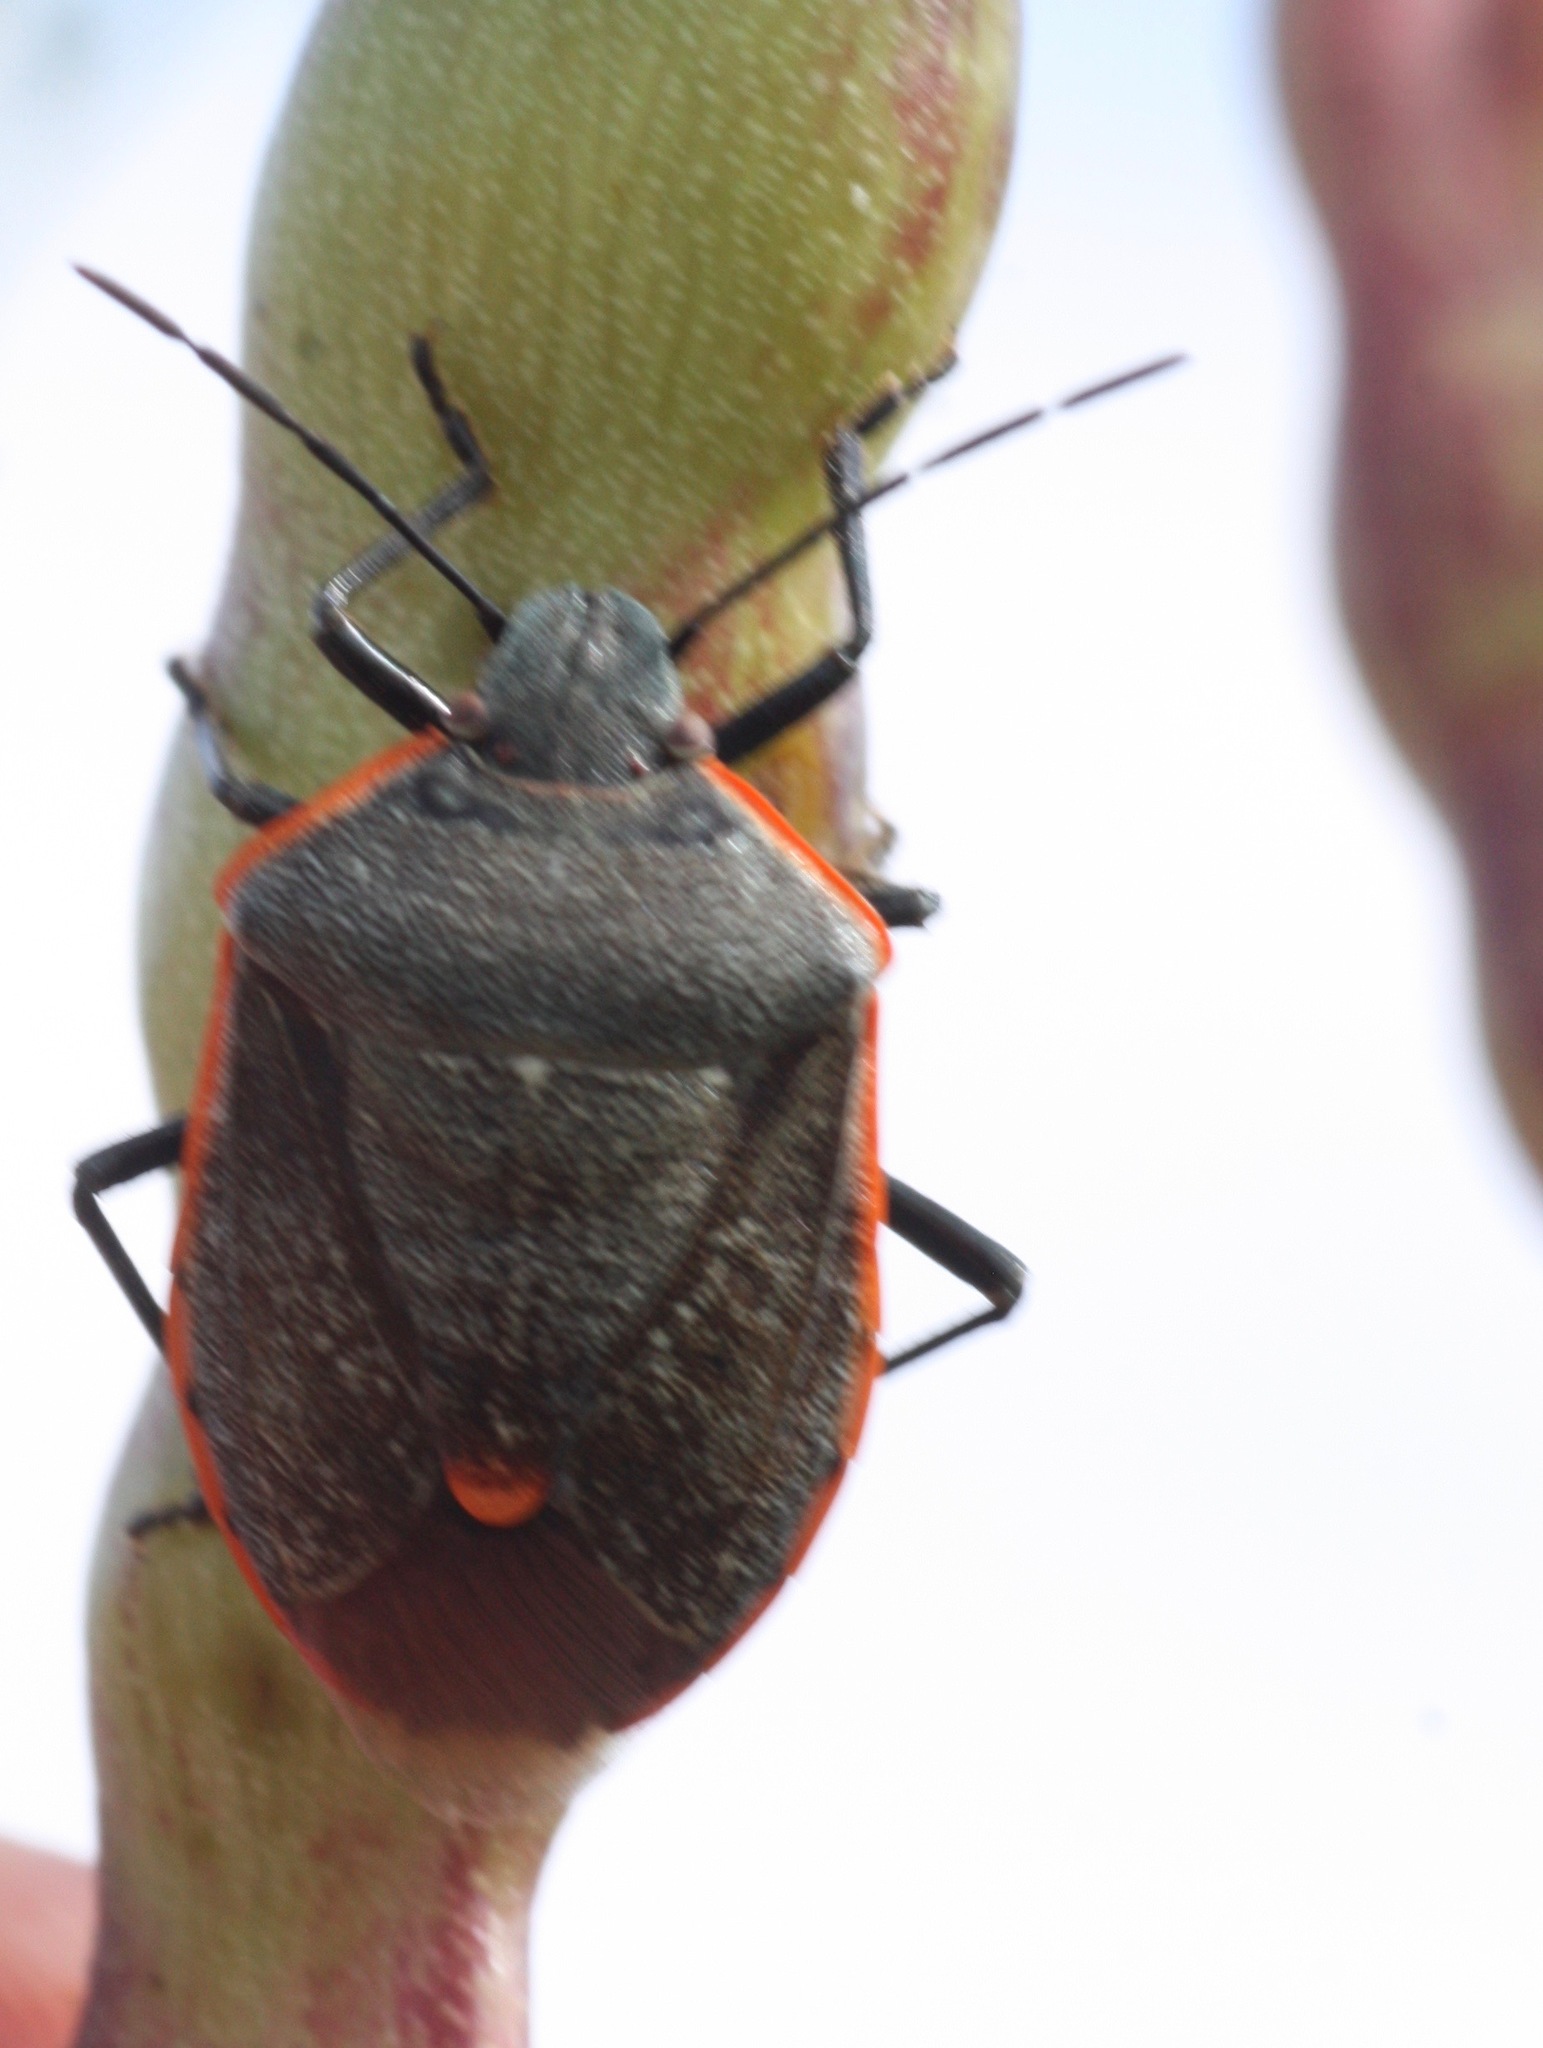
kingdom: Animalia
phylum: Arthropoda
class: Insecta
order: Hemiptera
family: Pentatomidae
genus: Chlorochroa
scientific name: Chlorochroa ligata
